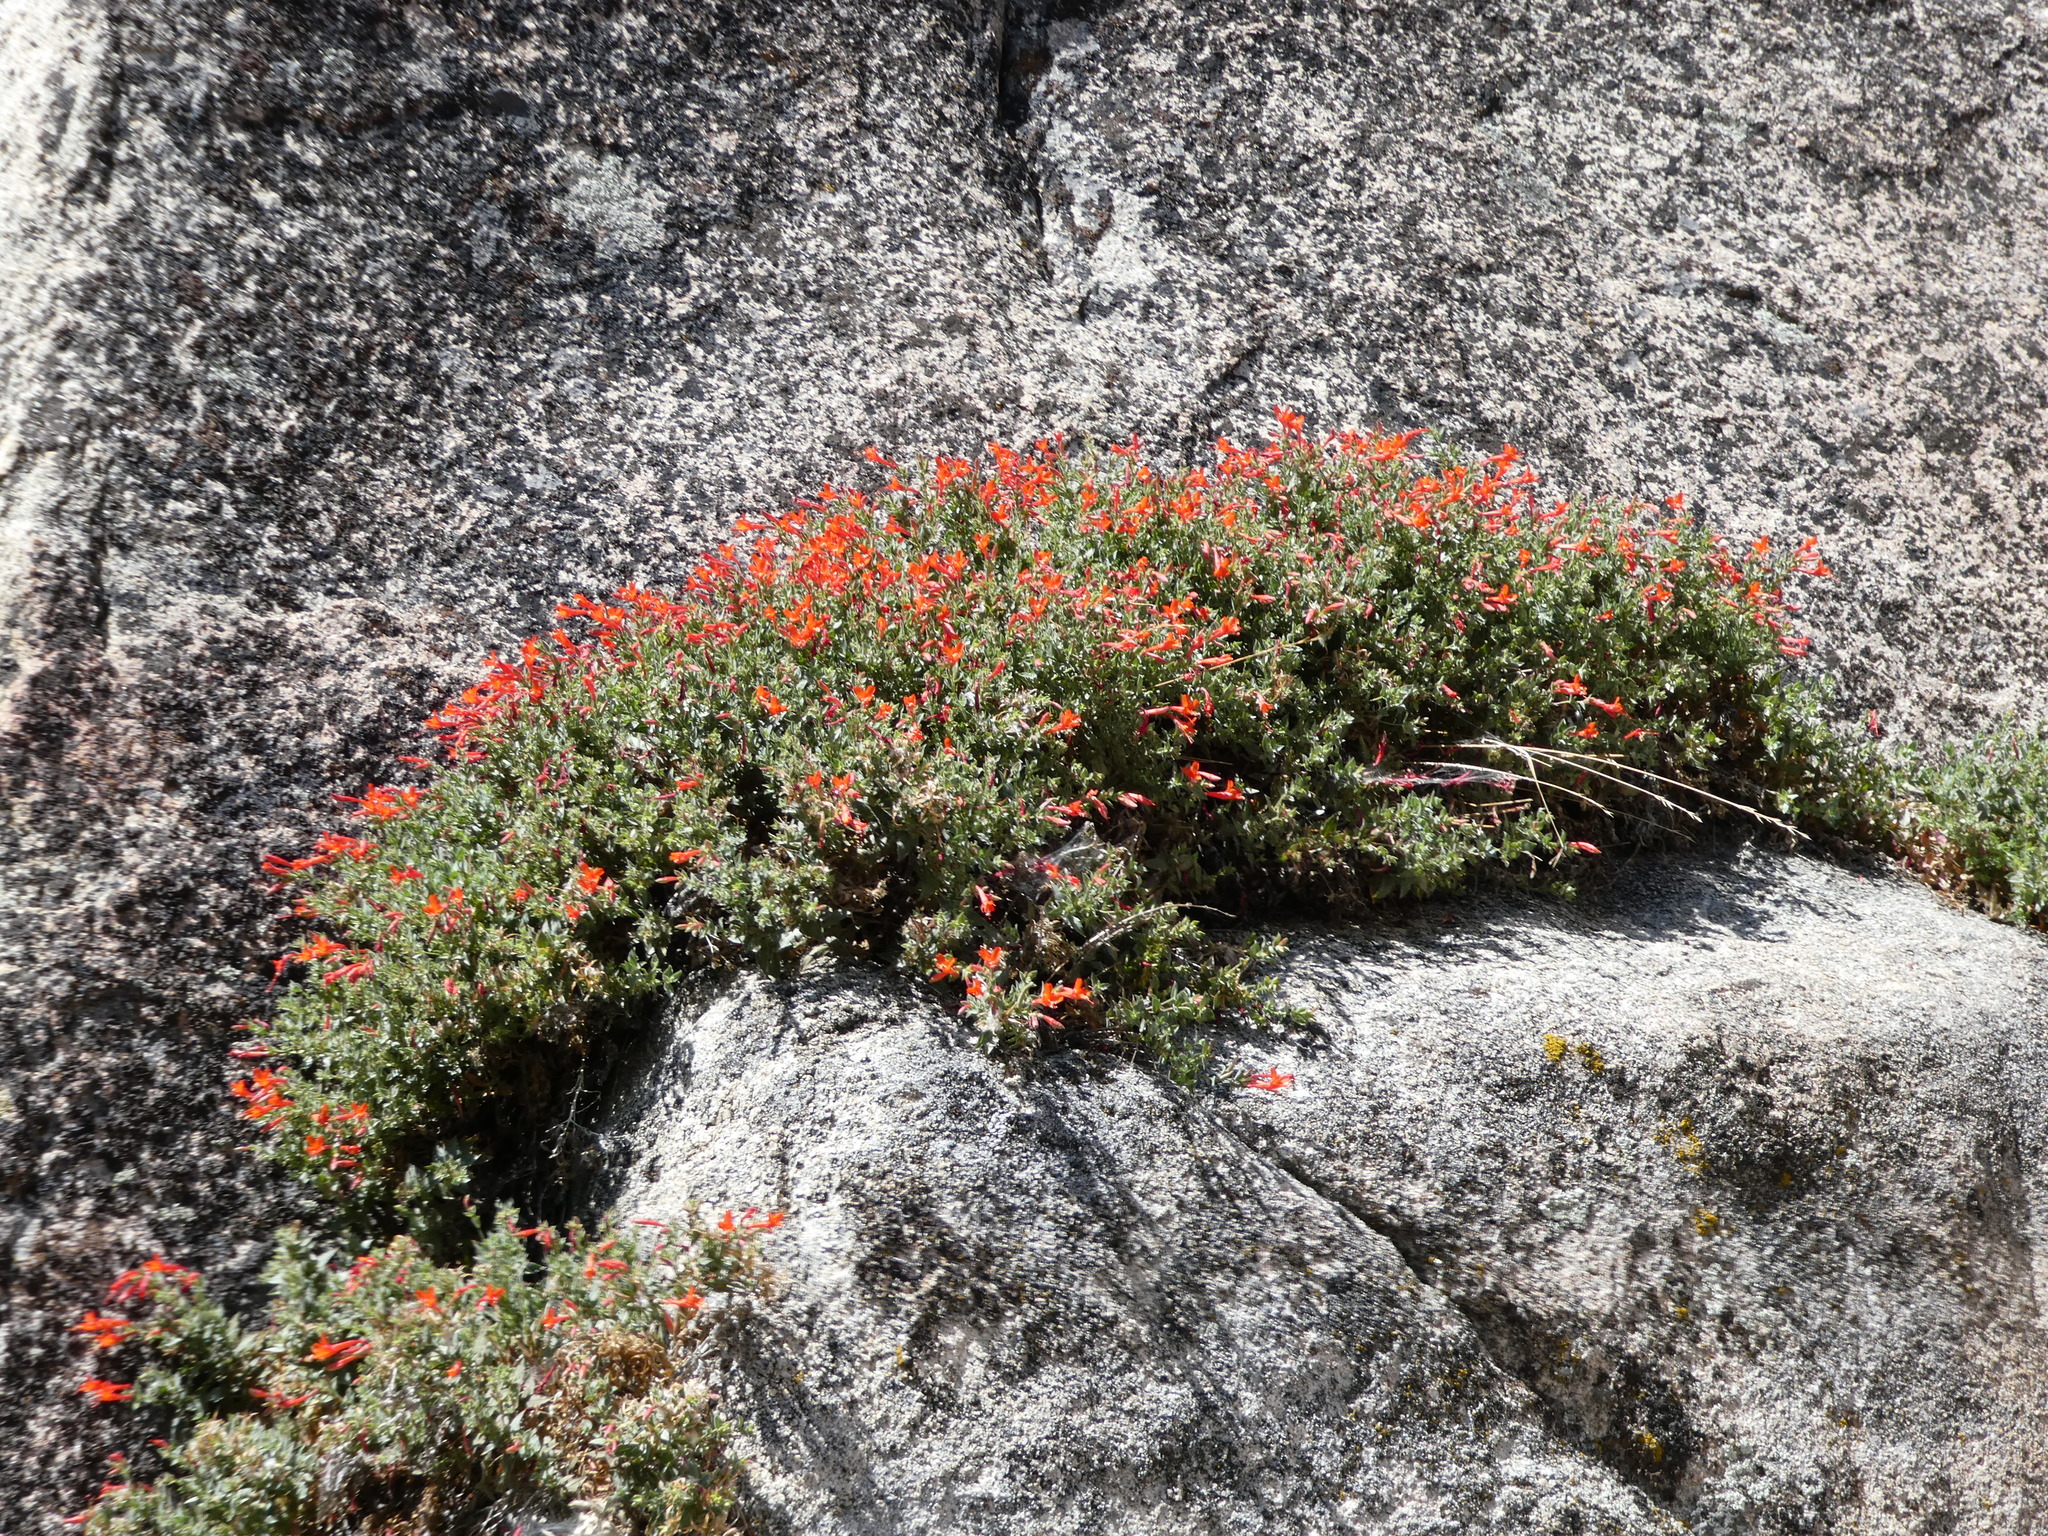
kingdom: Plantae
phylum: Tracheophyta
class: Magnoliopsida
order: Myrtales
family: Onagraceae
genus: Epilobium
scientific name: Epilobium canum
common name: California-fuchsia
